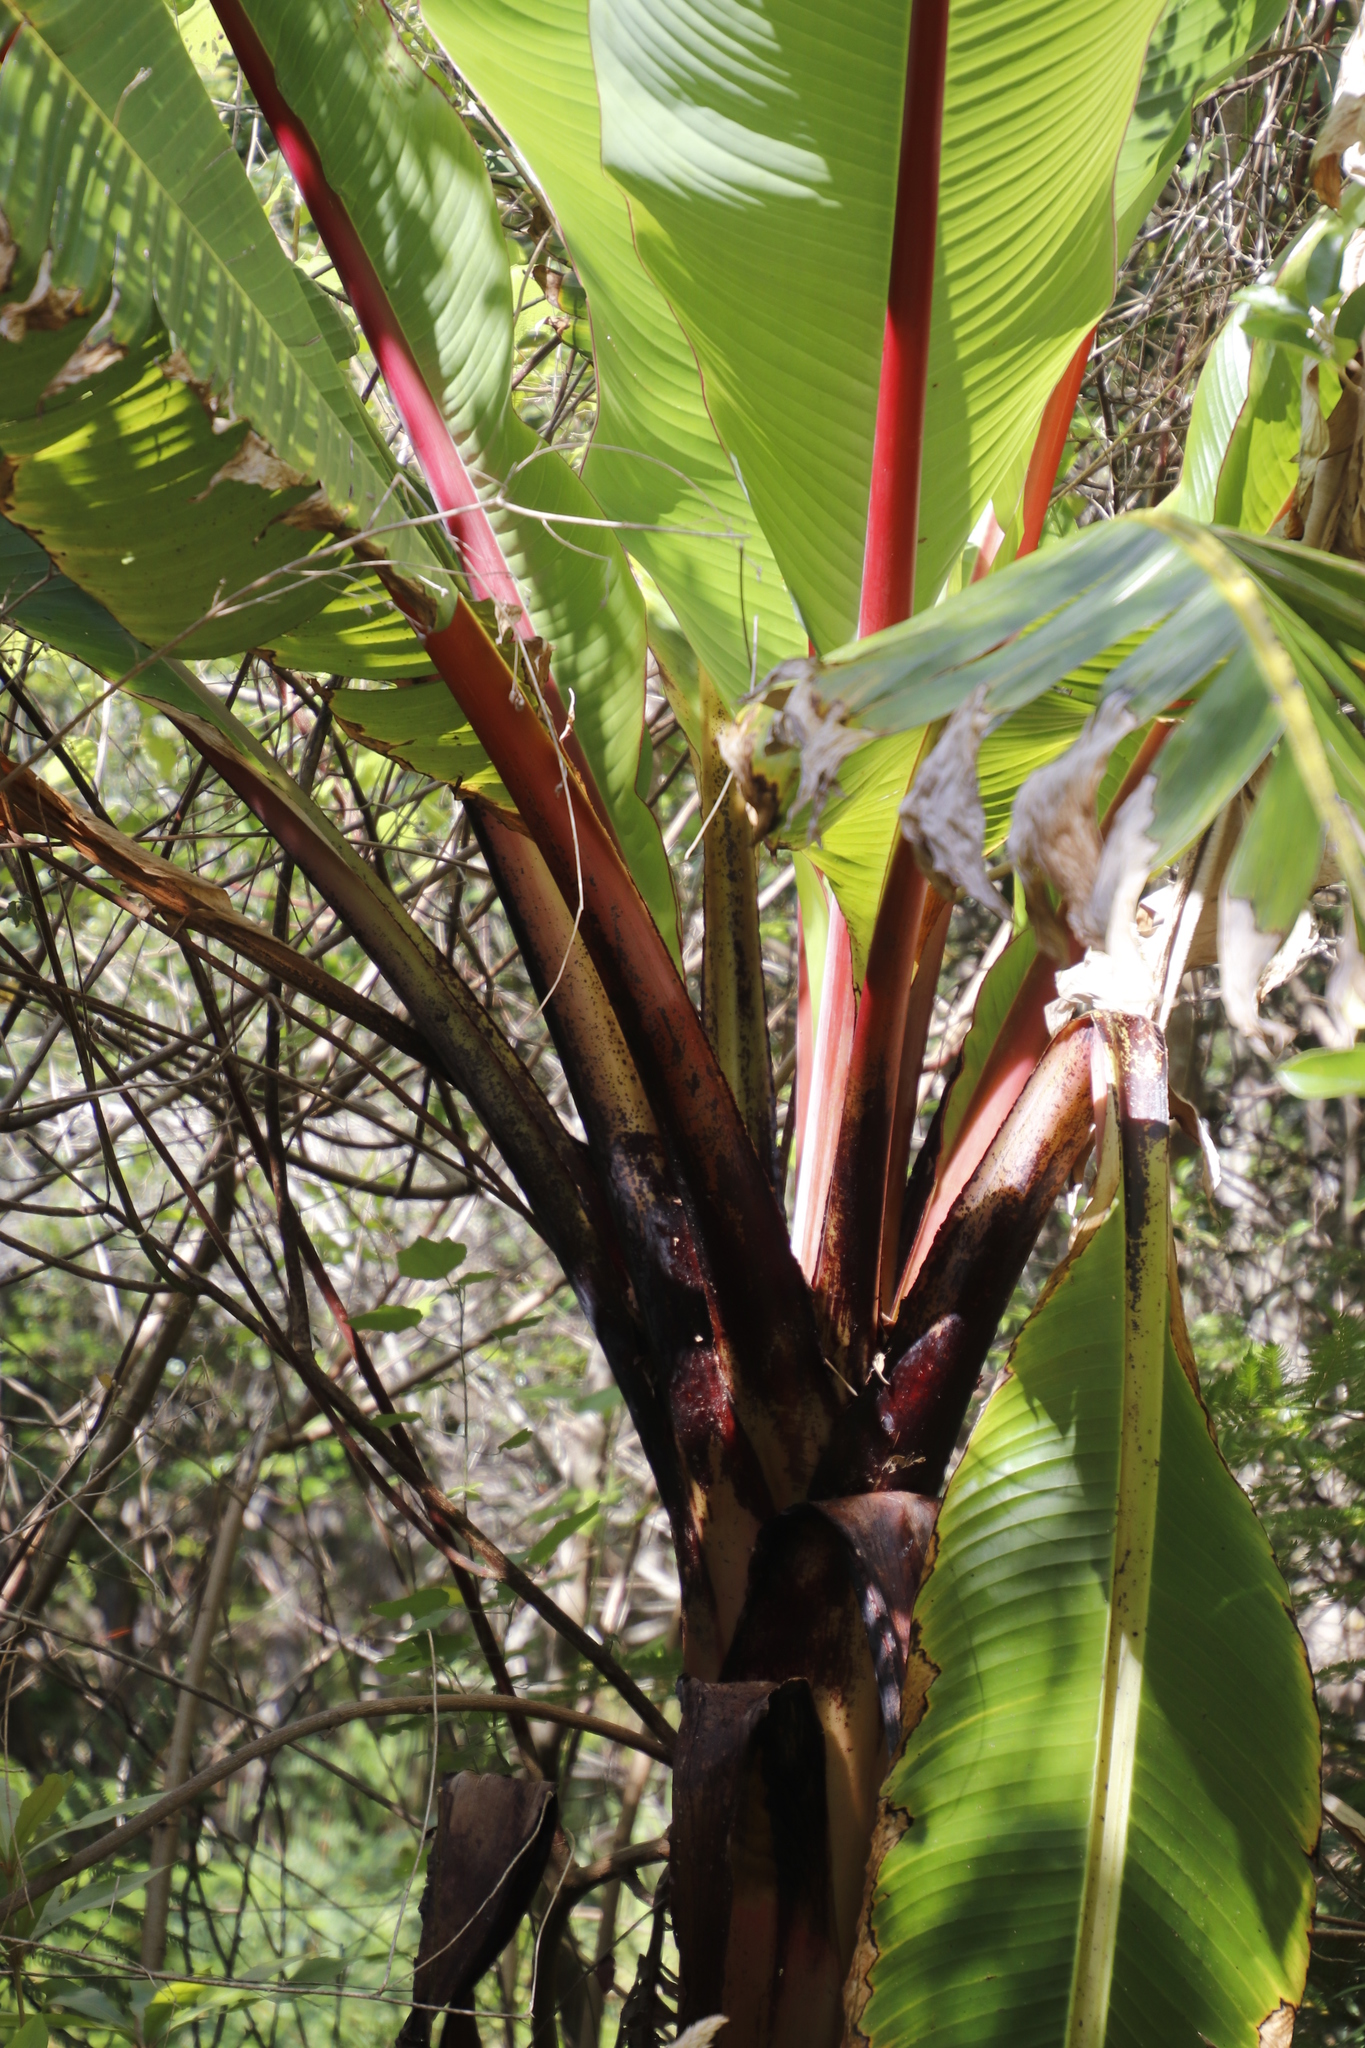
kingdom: Plantae
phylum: Tracheophyta
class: Liliopsida
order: Zingiberales
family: Musaceae
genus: Ensete
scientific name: Ensete ventricosum
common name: Abyssinian banana
